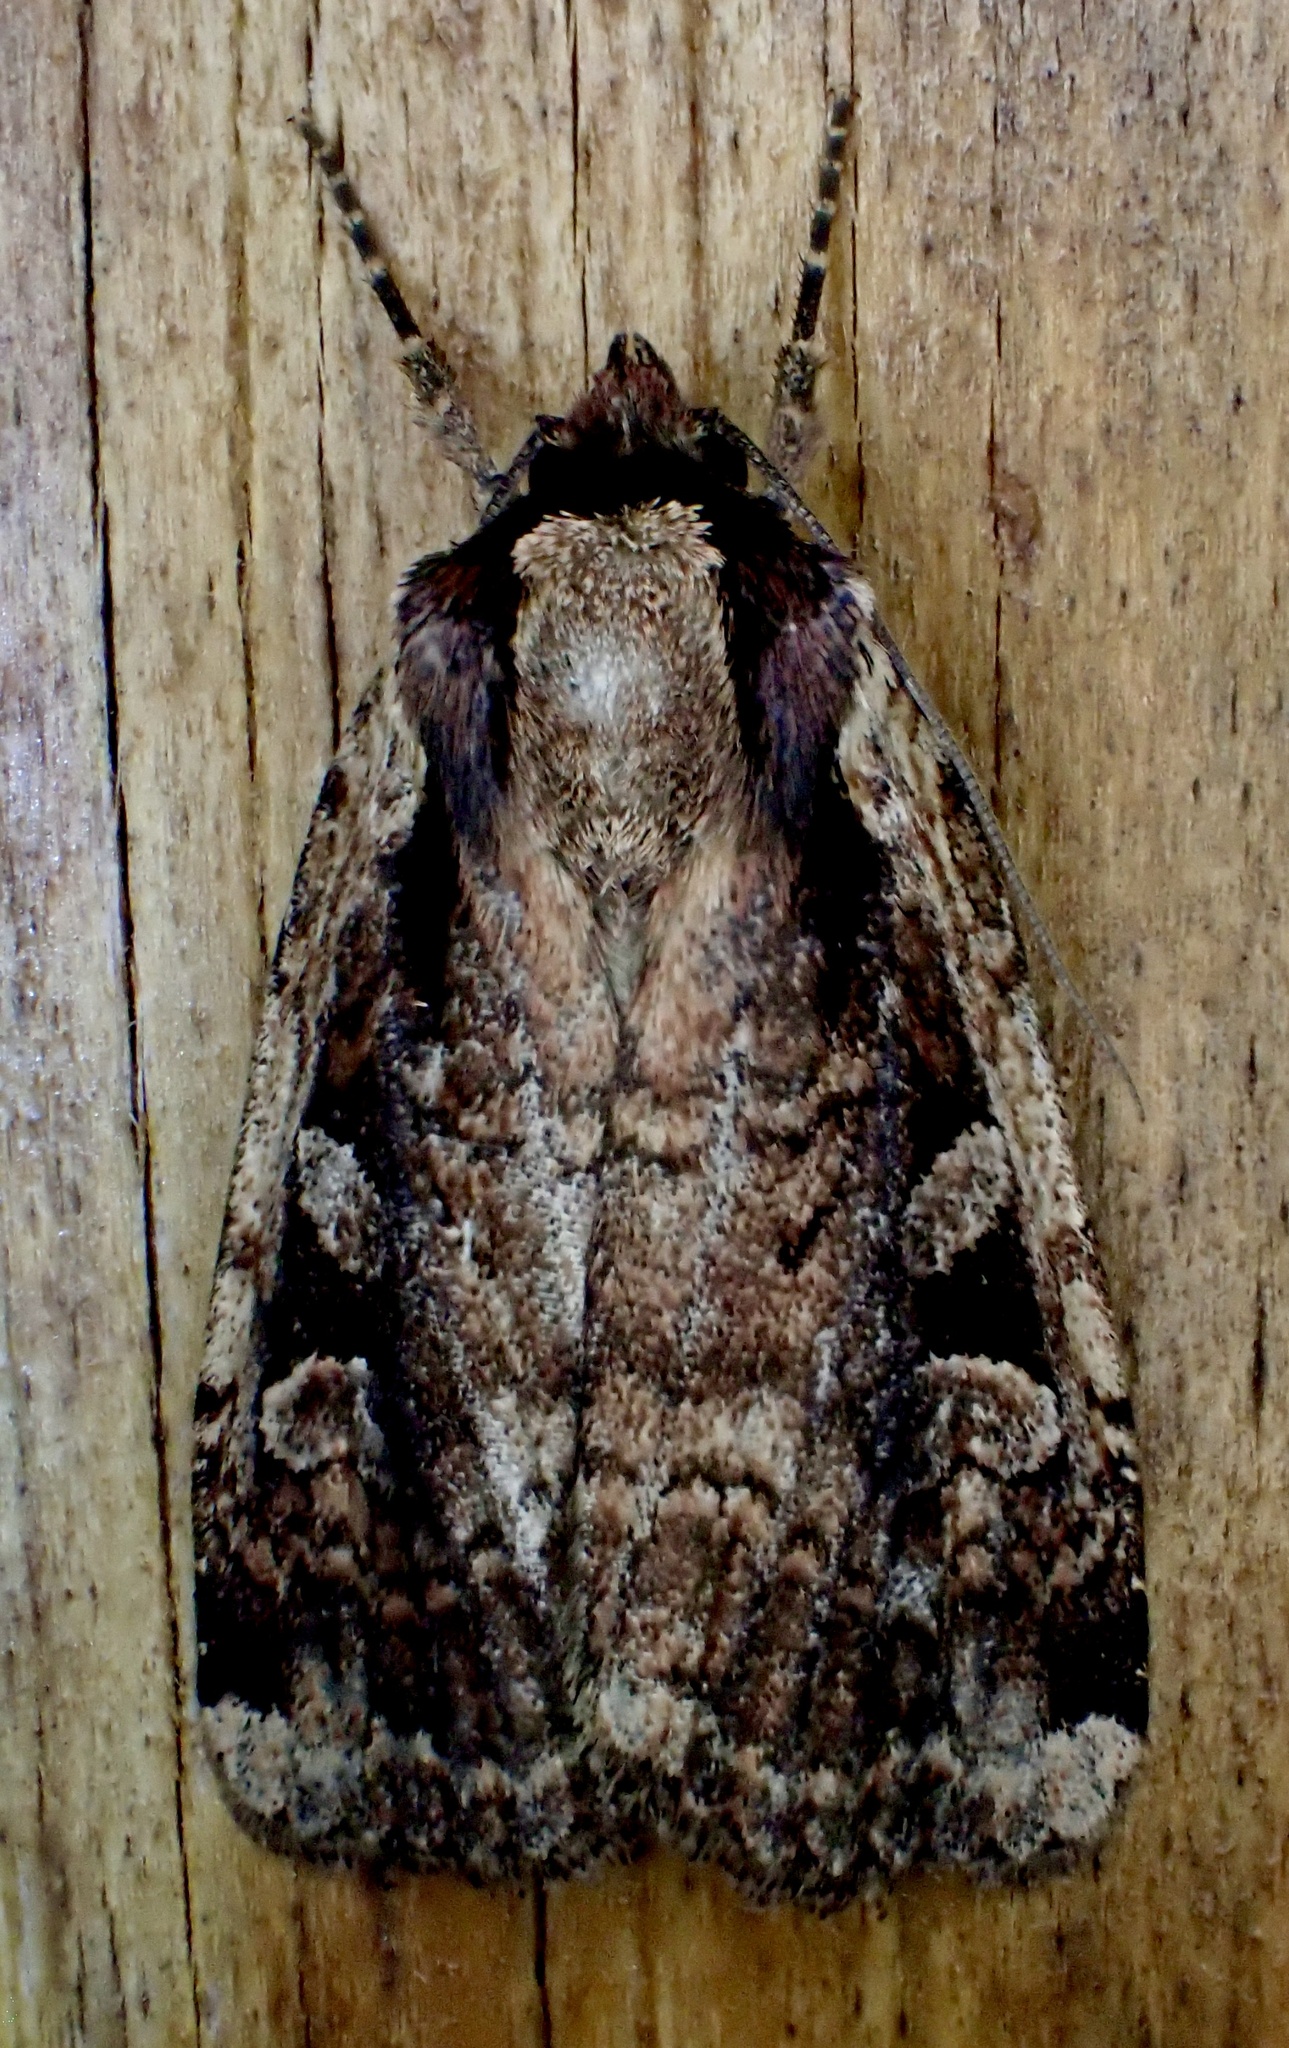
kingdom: Animalia
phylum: Arthropoda
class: Insecta
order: Lepidoptera
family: Noctuidae
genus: Eueretagrotis
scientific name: Eueretagrotis sigmoides
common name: Sigmoid dart
